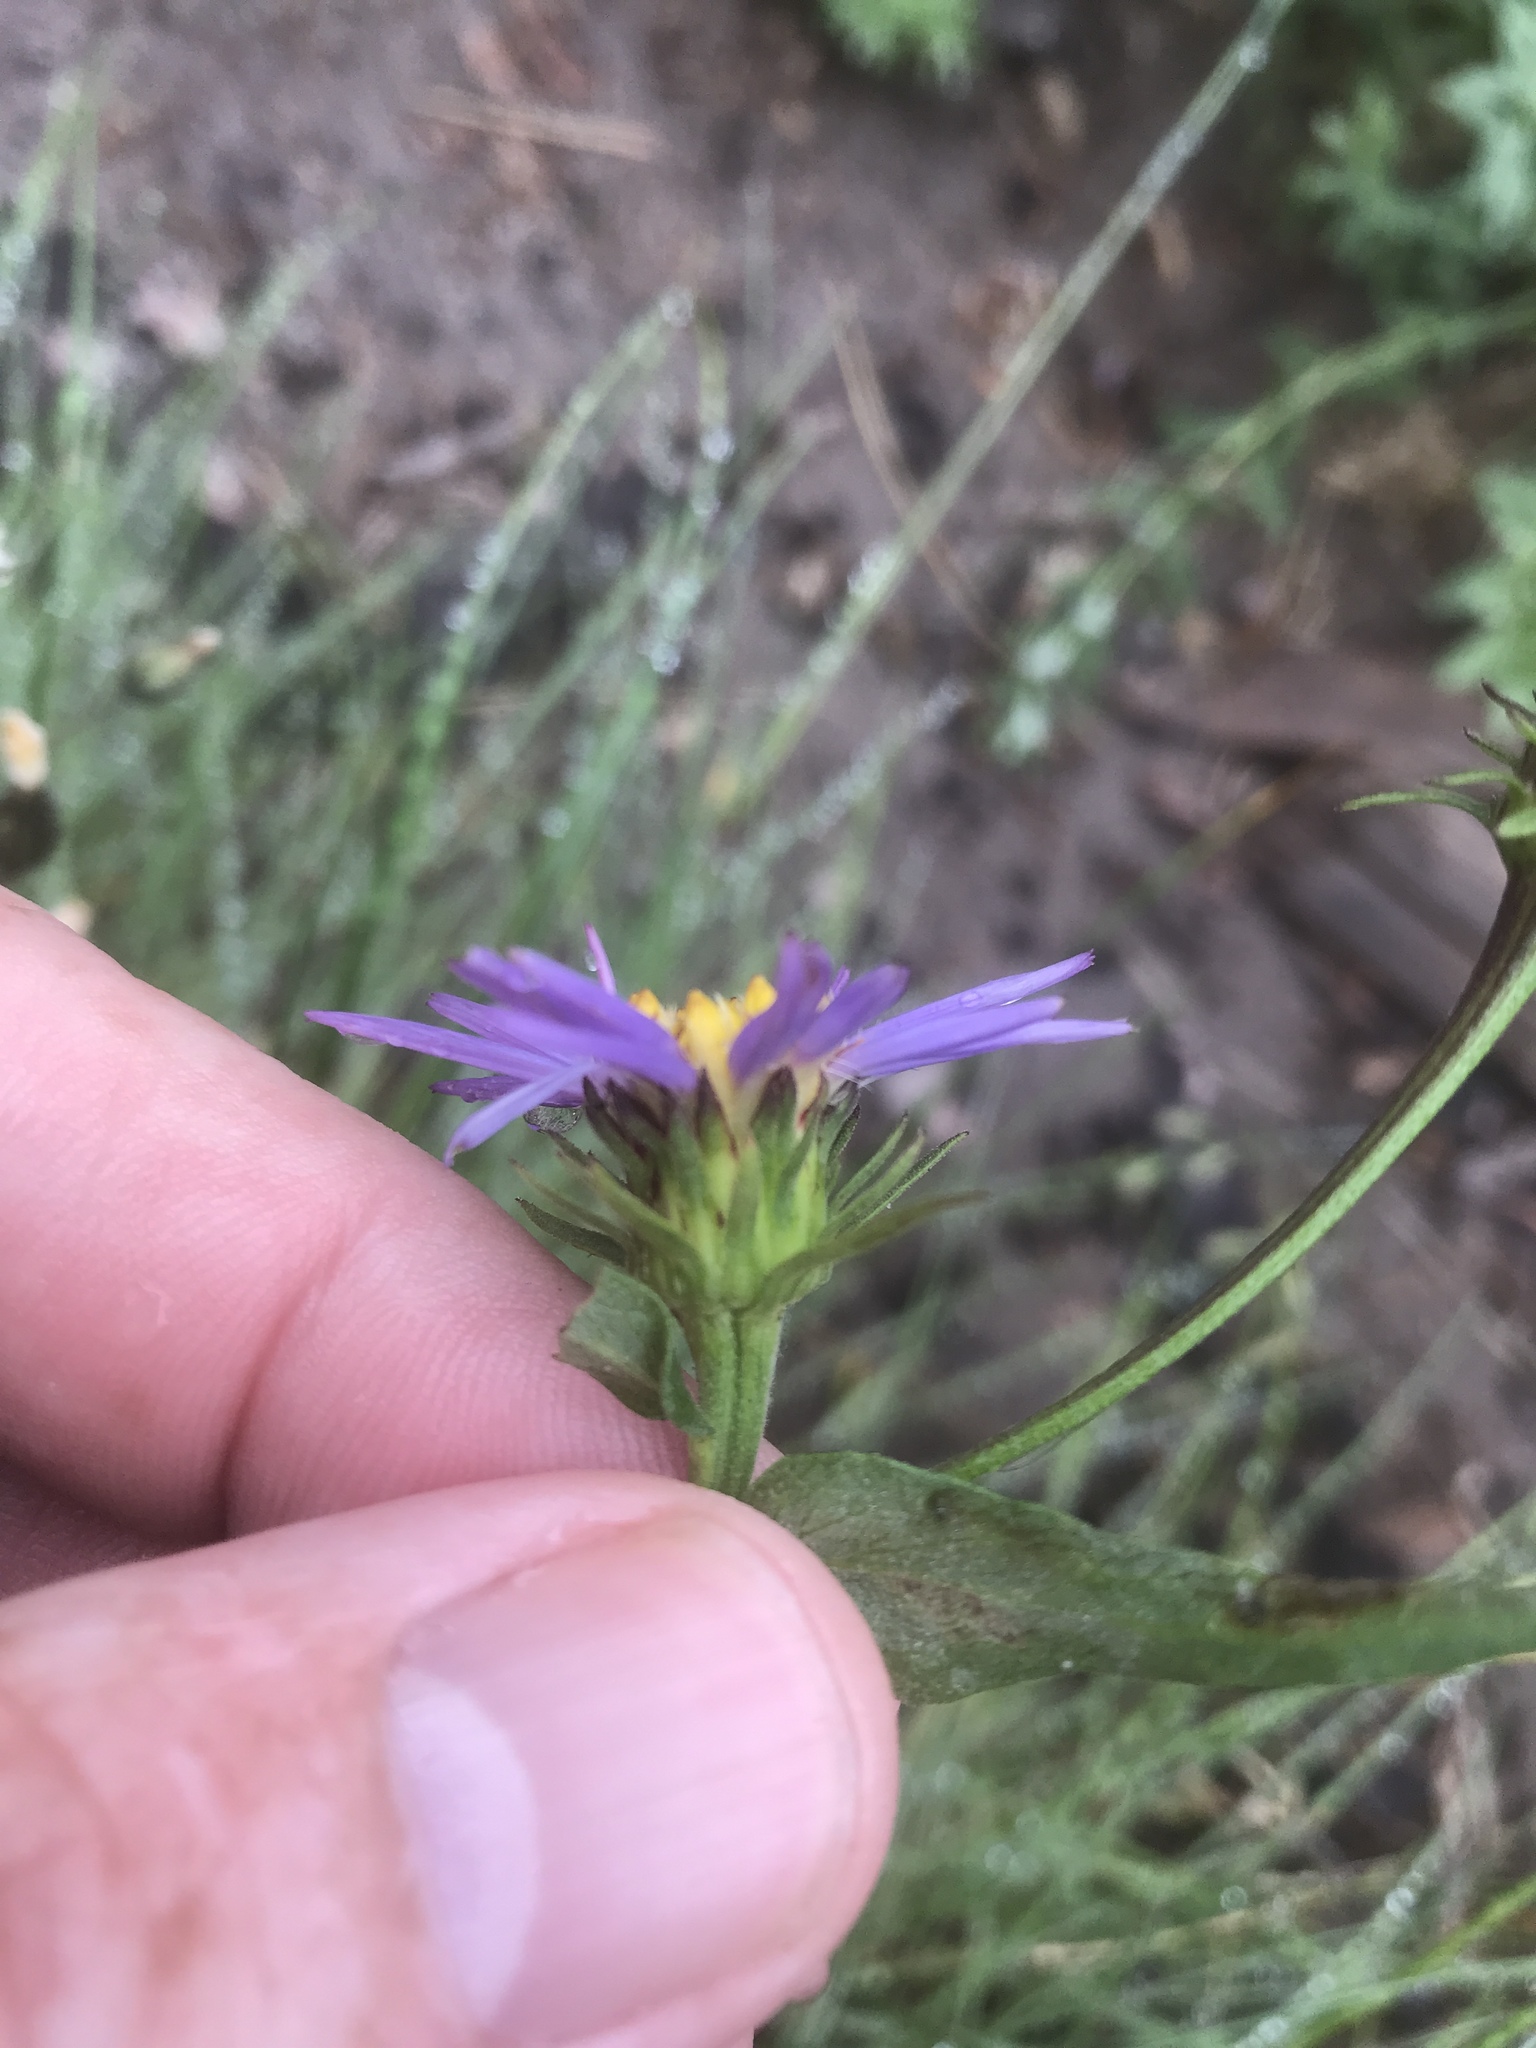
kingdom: Plantae
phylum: Tracheophyta
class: Magnoliopsida
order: Asterales
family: Asteraceae
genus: Eucephalus
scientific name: Eucephalus ledophyllus
